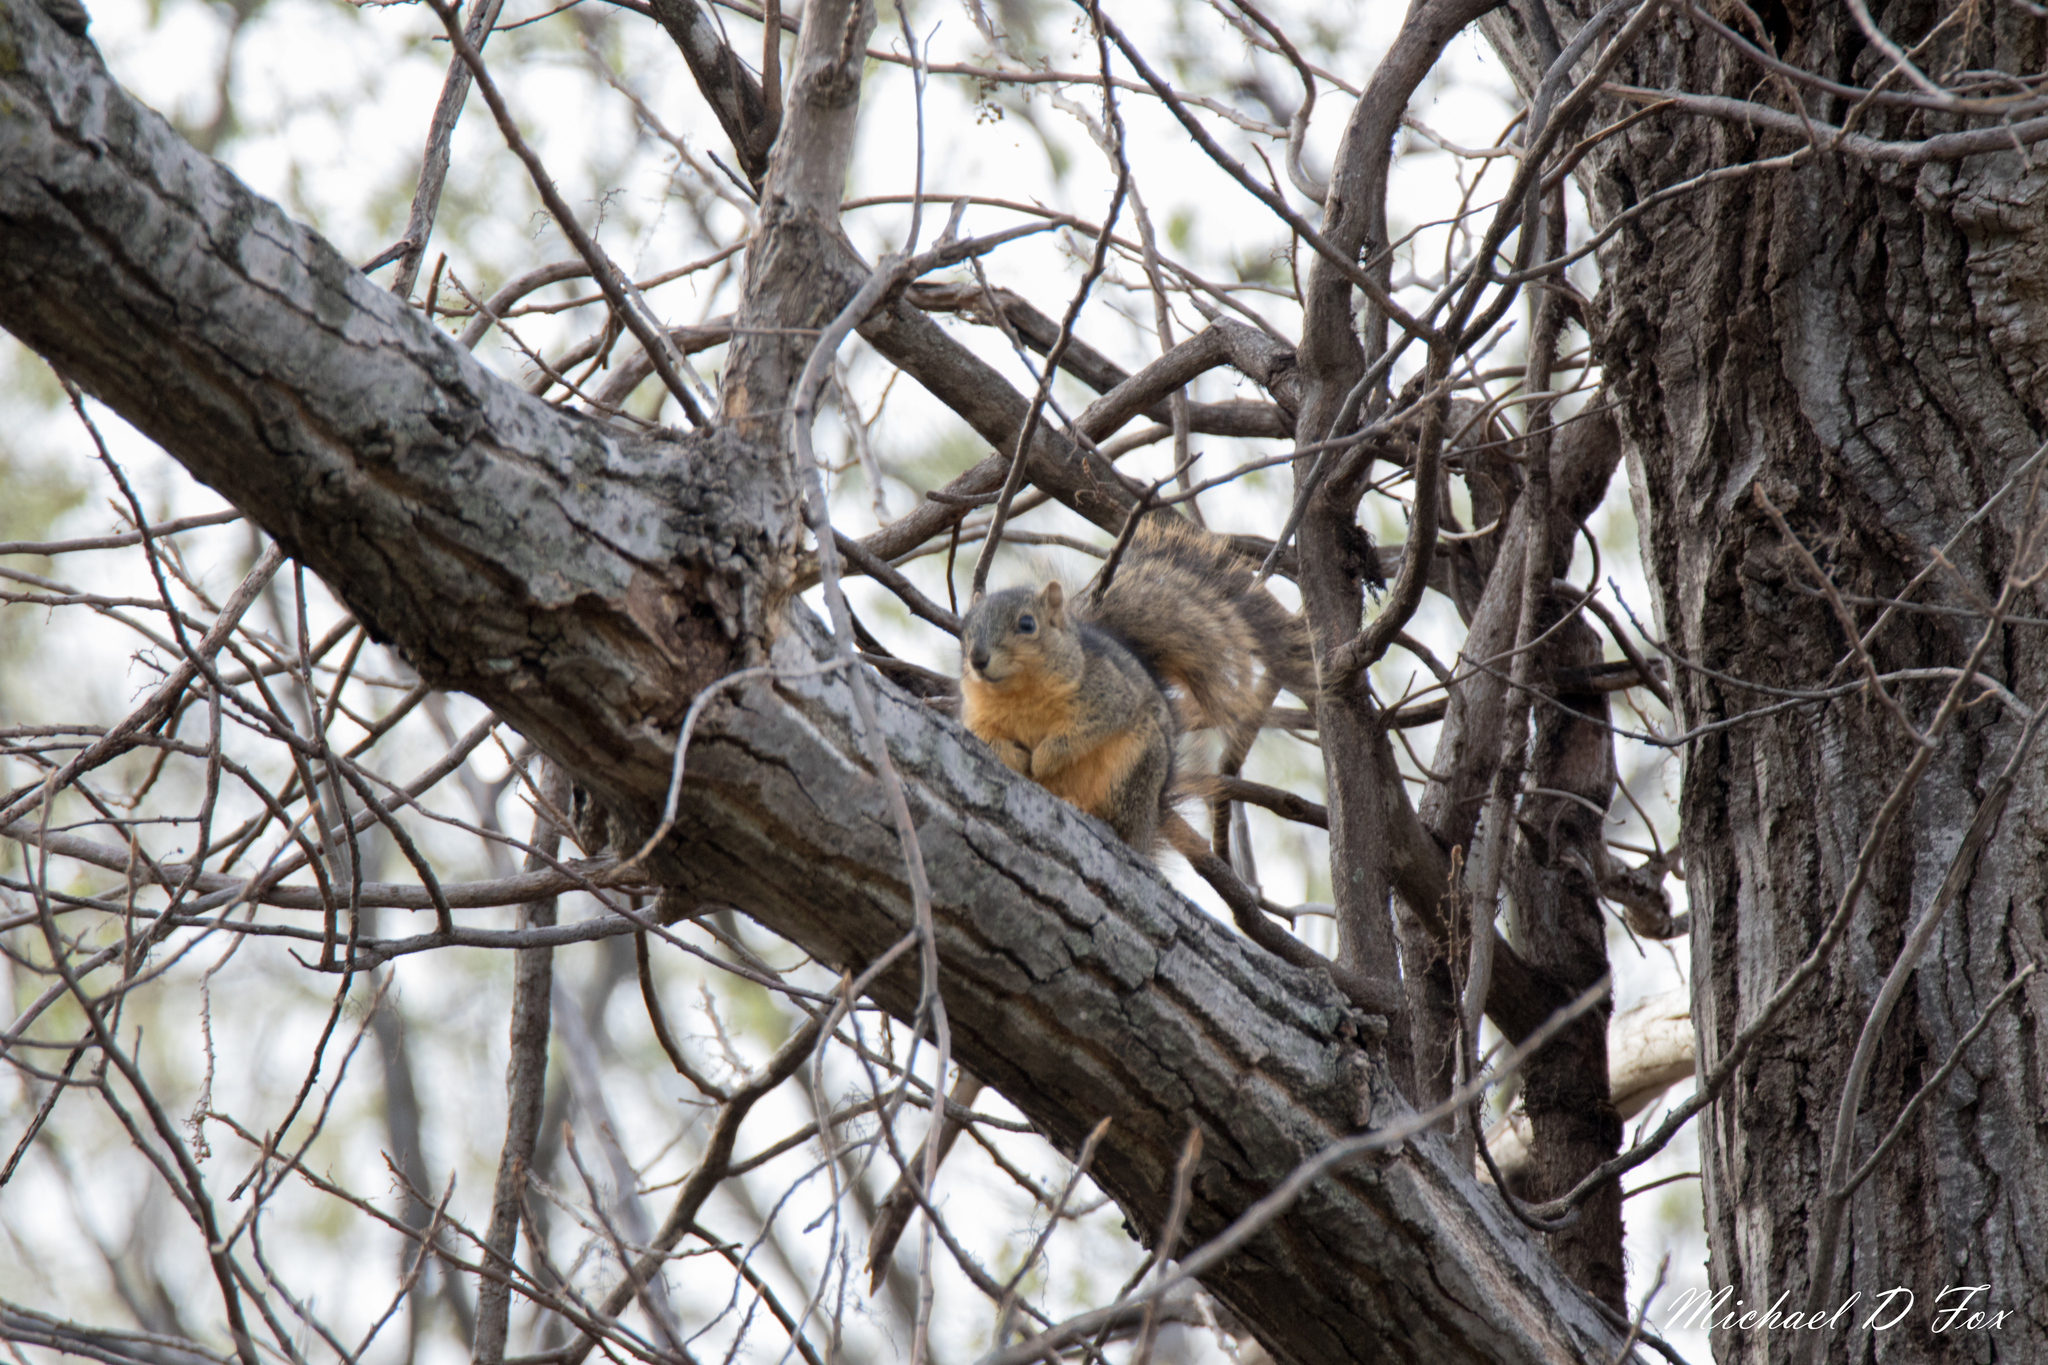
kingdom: Animalia
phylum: Chordata
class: Mammalia
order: Rodentia
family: Sciuridae
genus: Sciurus
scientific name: Sciurus niger
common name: Fox squirrel
